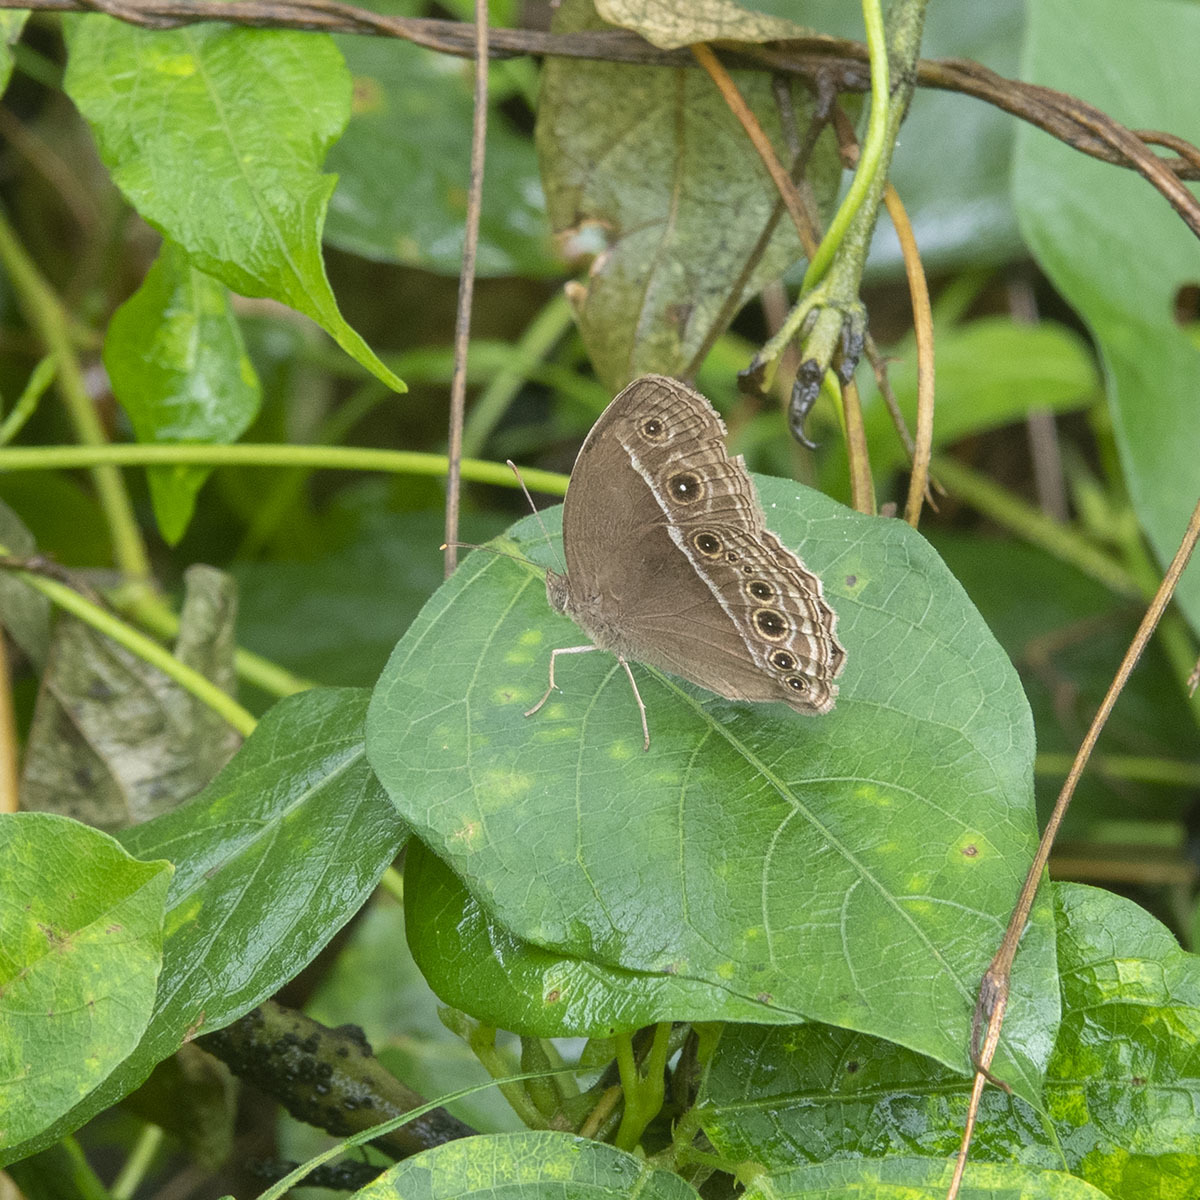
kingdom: Animalia
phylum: Arthropoda
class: Insecta
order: Lepidoptera
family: Nymphalidae
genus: Mycalesis
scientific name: Mycalesis mineus
